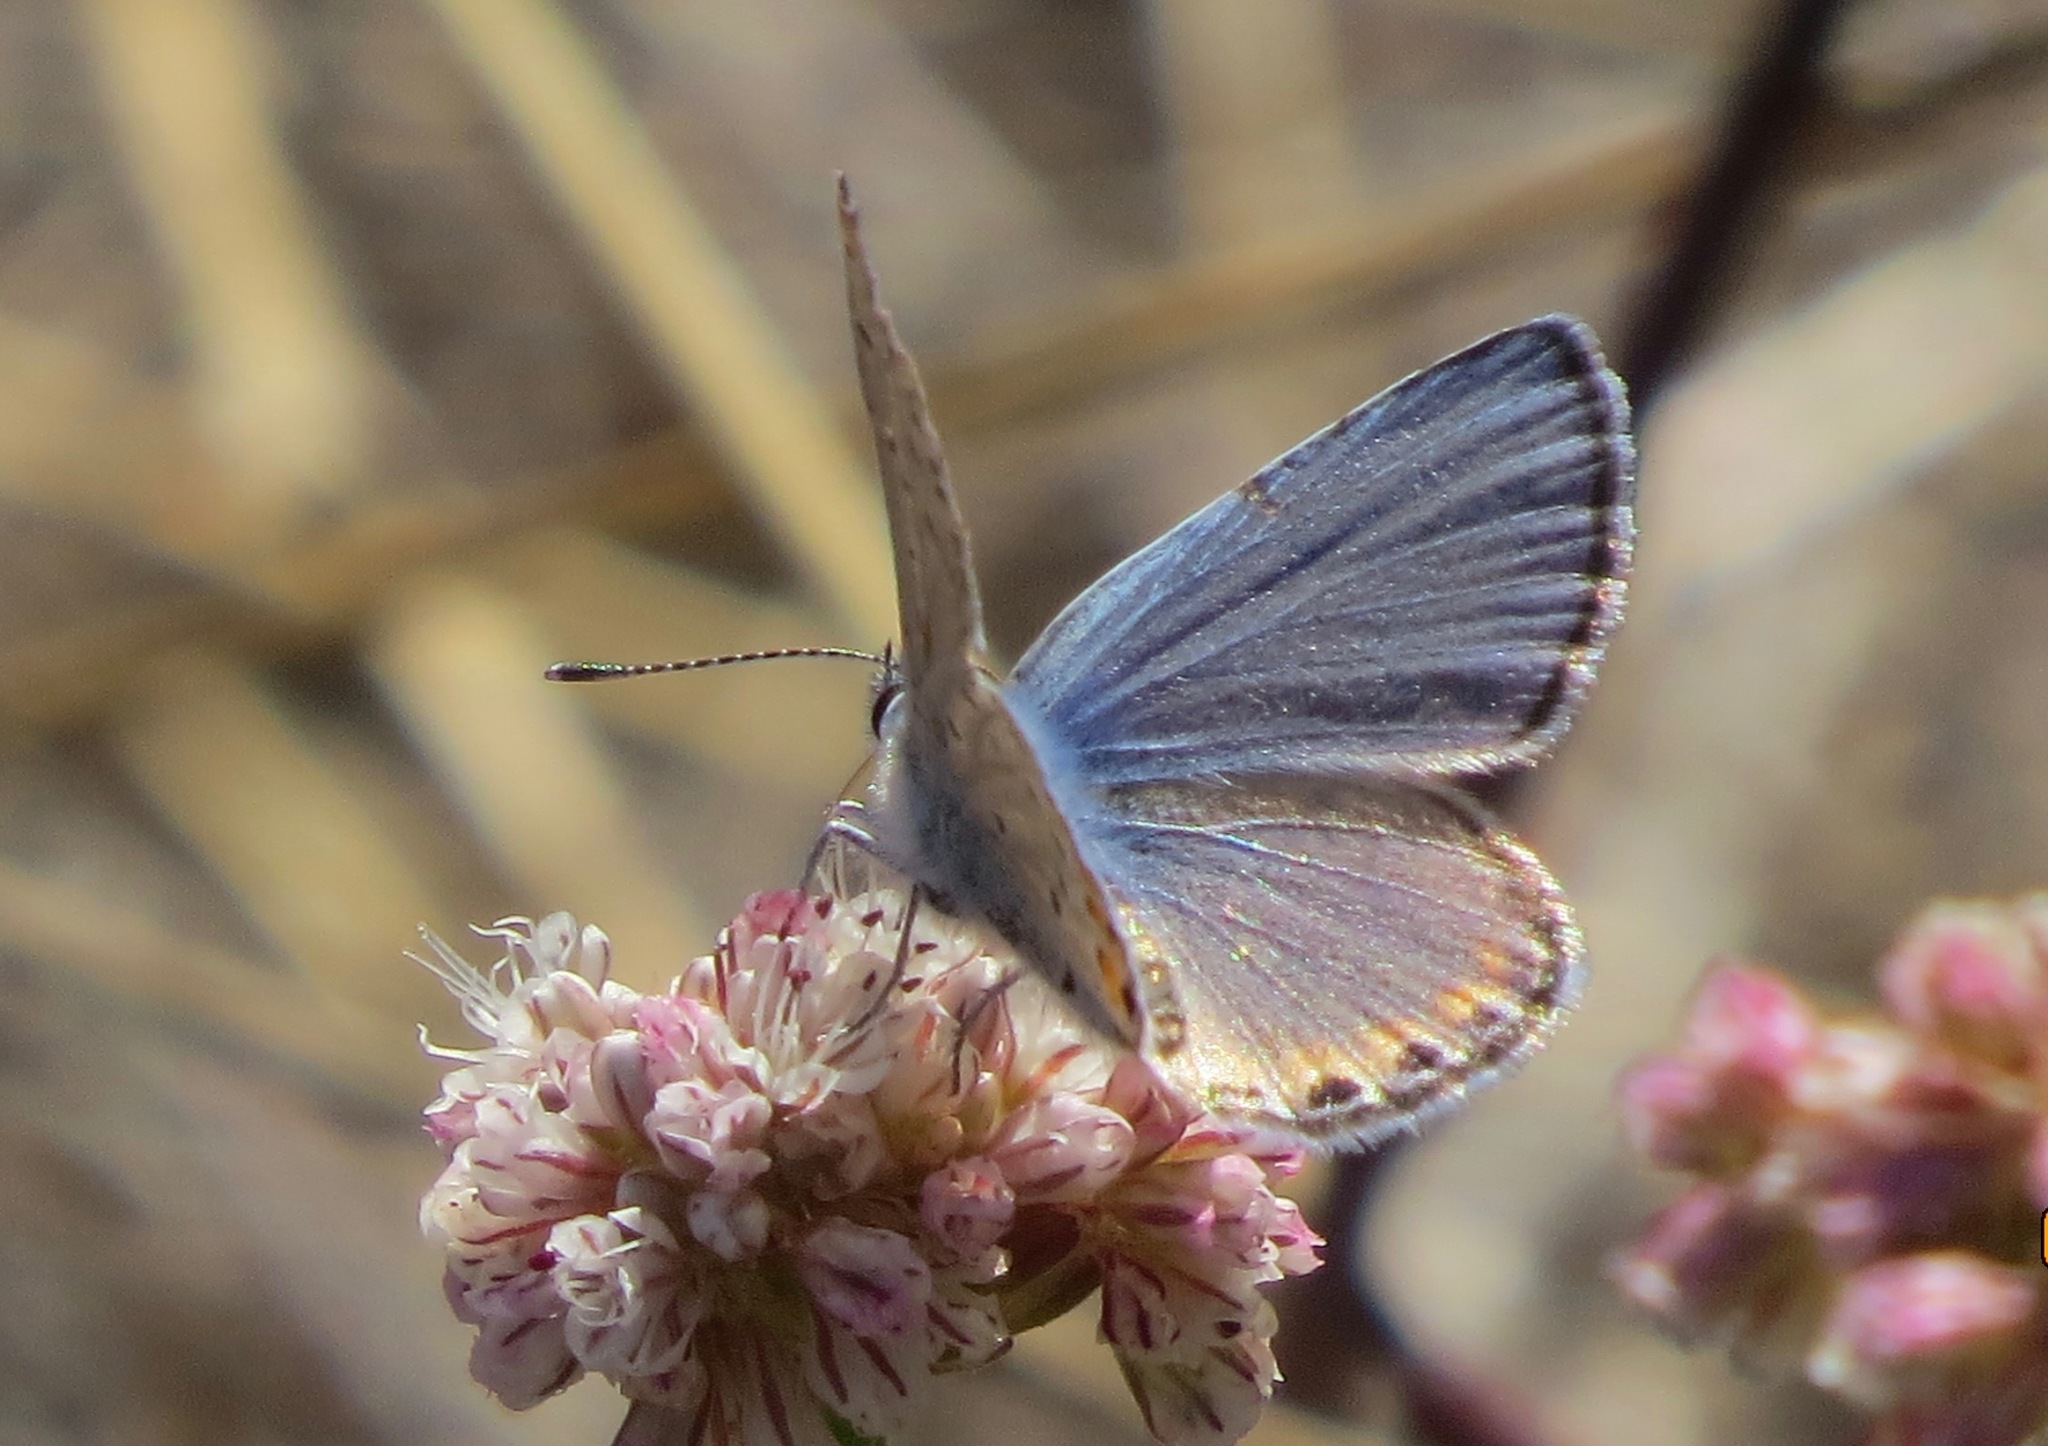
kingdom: Animalia
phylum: Arthropoda
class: Insecta
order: Lepidoptera
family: Lycaenidae
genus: Icaricia
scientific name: Icaricia acmon
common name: Acmon blue
